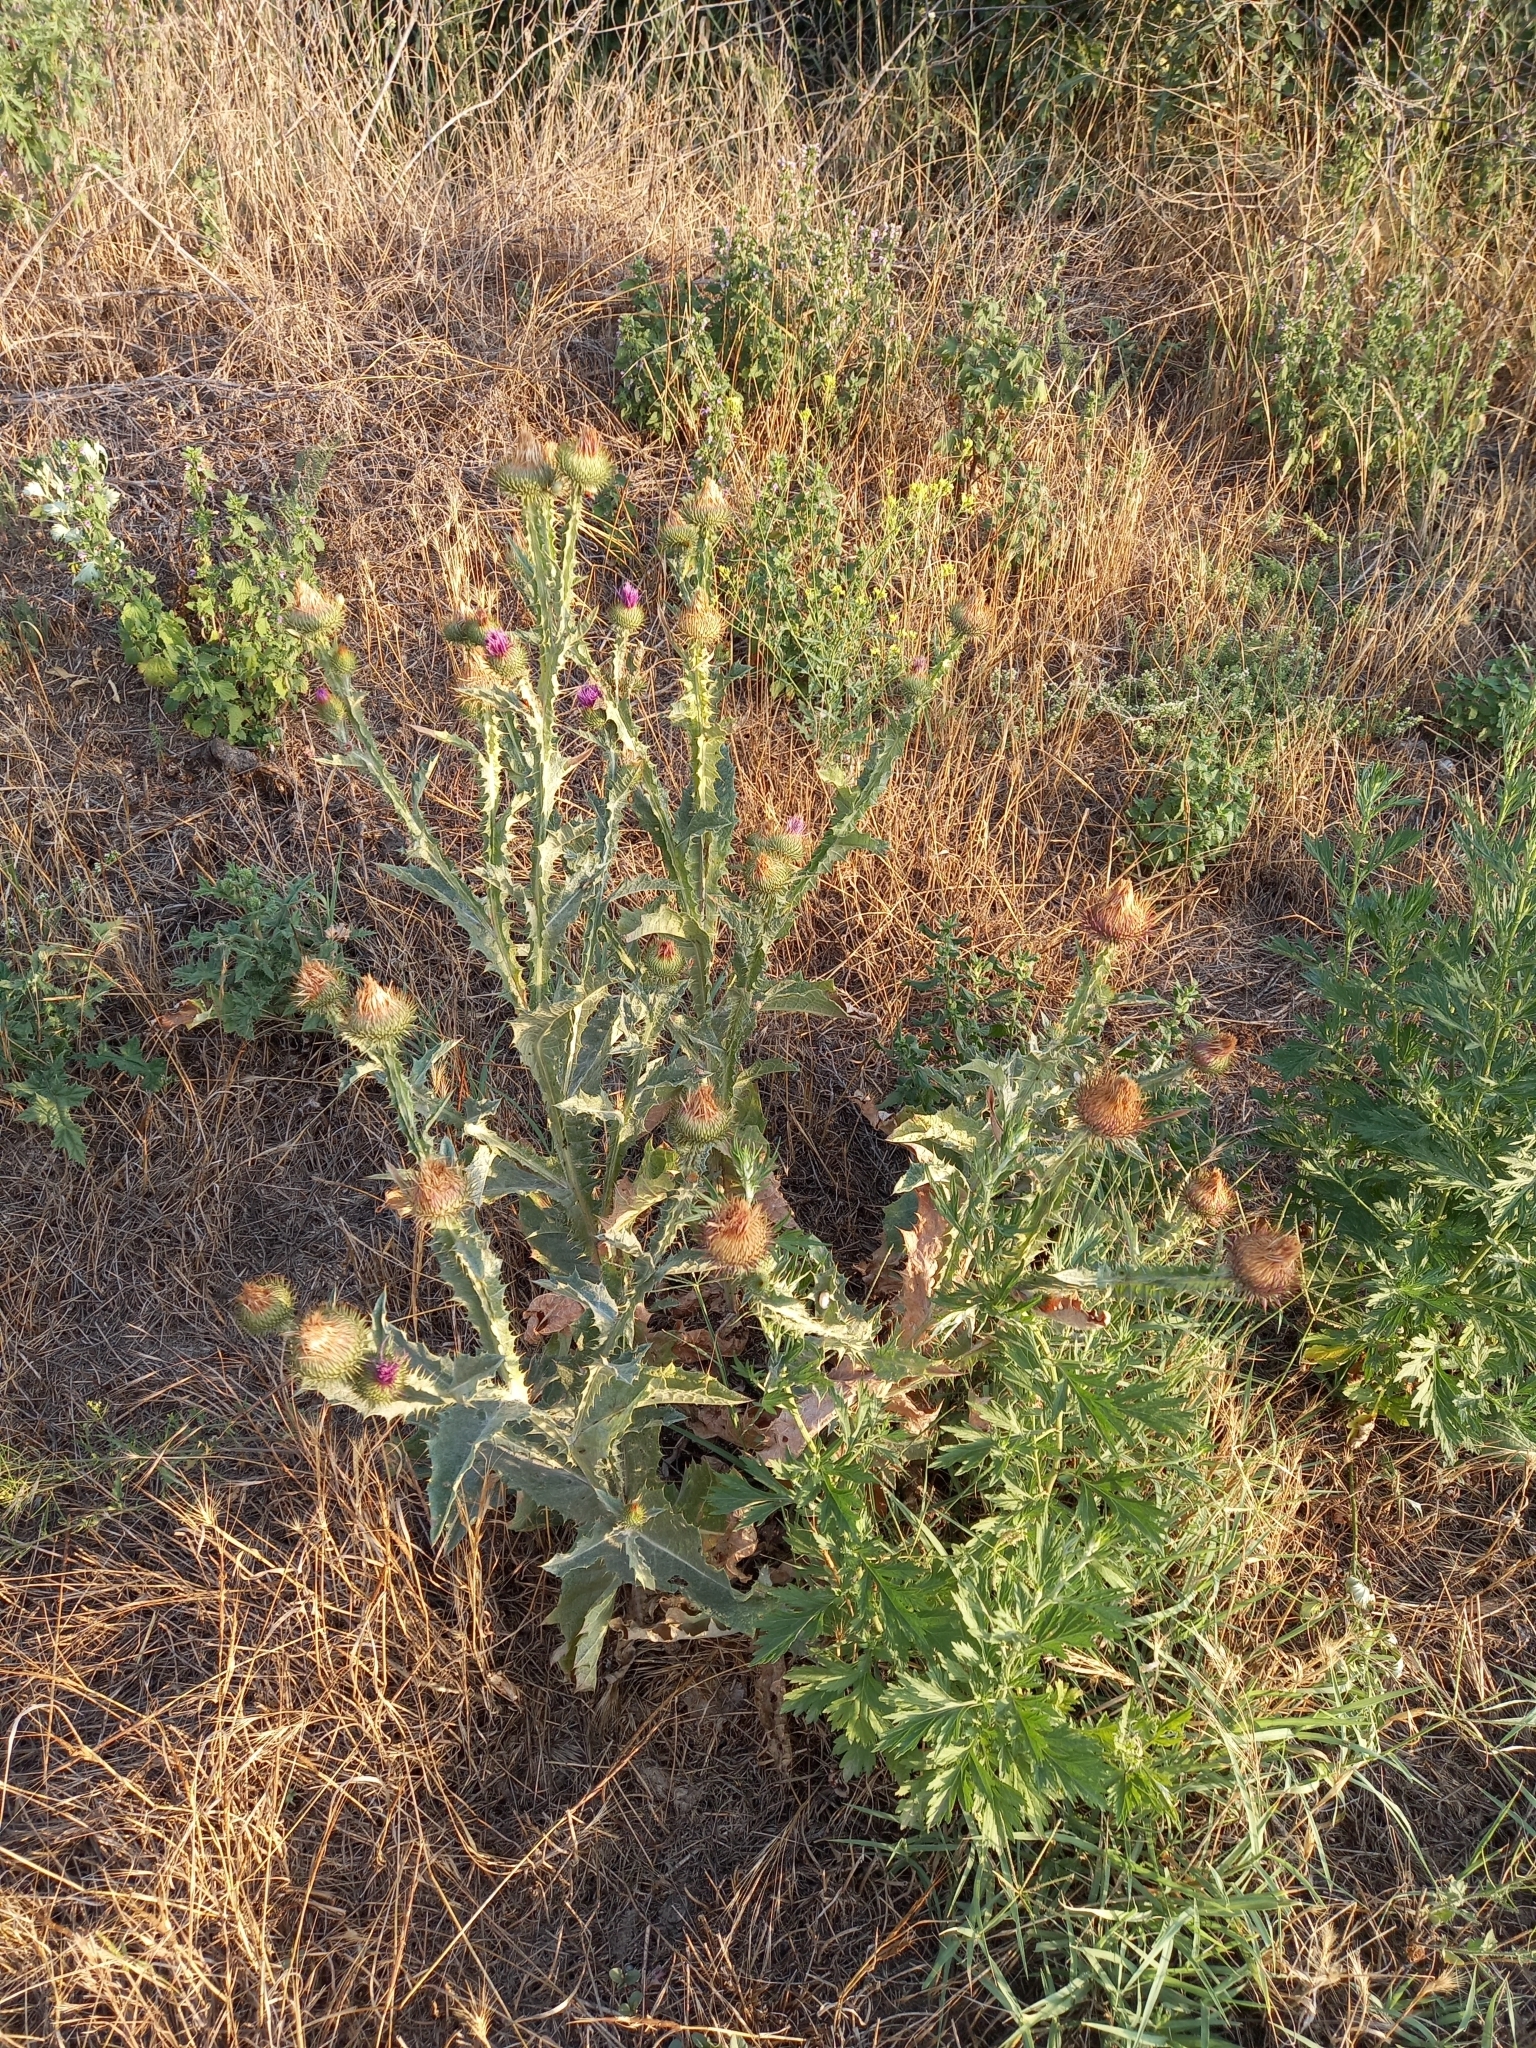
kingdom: Plantae
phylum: Tracheophyta
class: Magnoliopsida
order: Asterales
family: Asteraceae
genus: Onopordum
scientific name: Onopordum acanthium
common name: Scotch thistle
